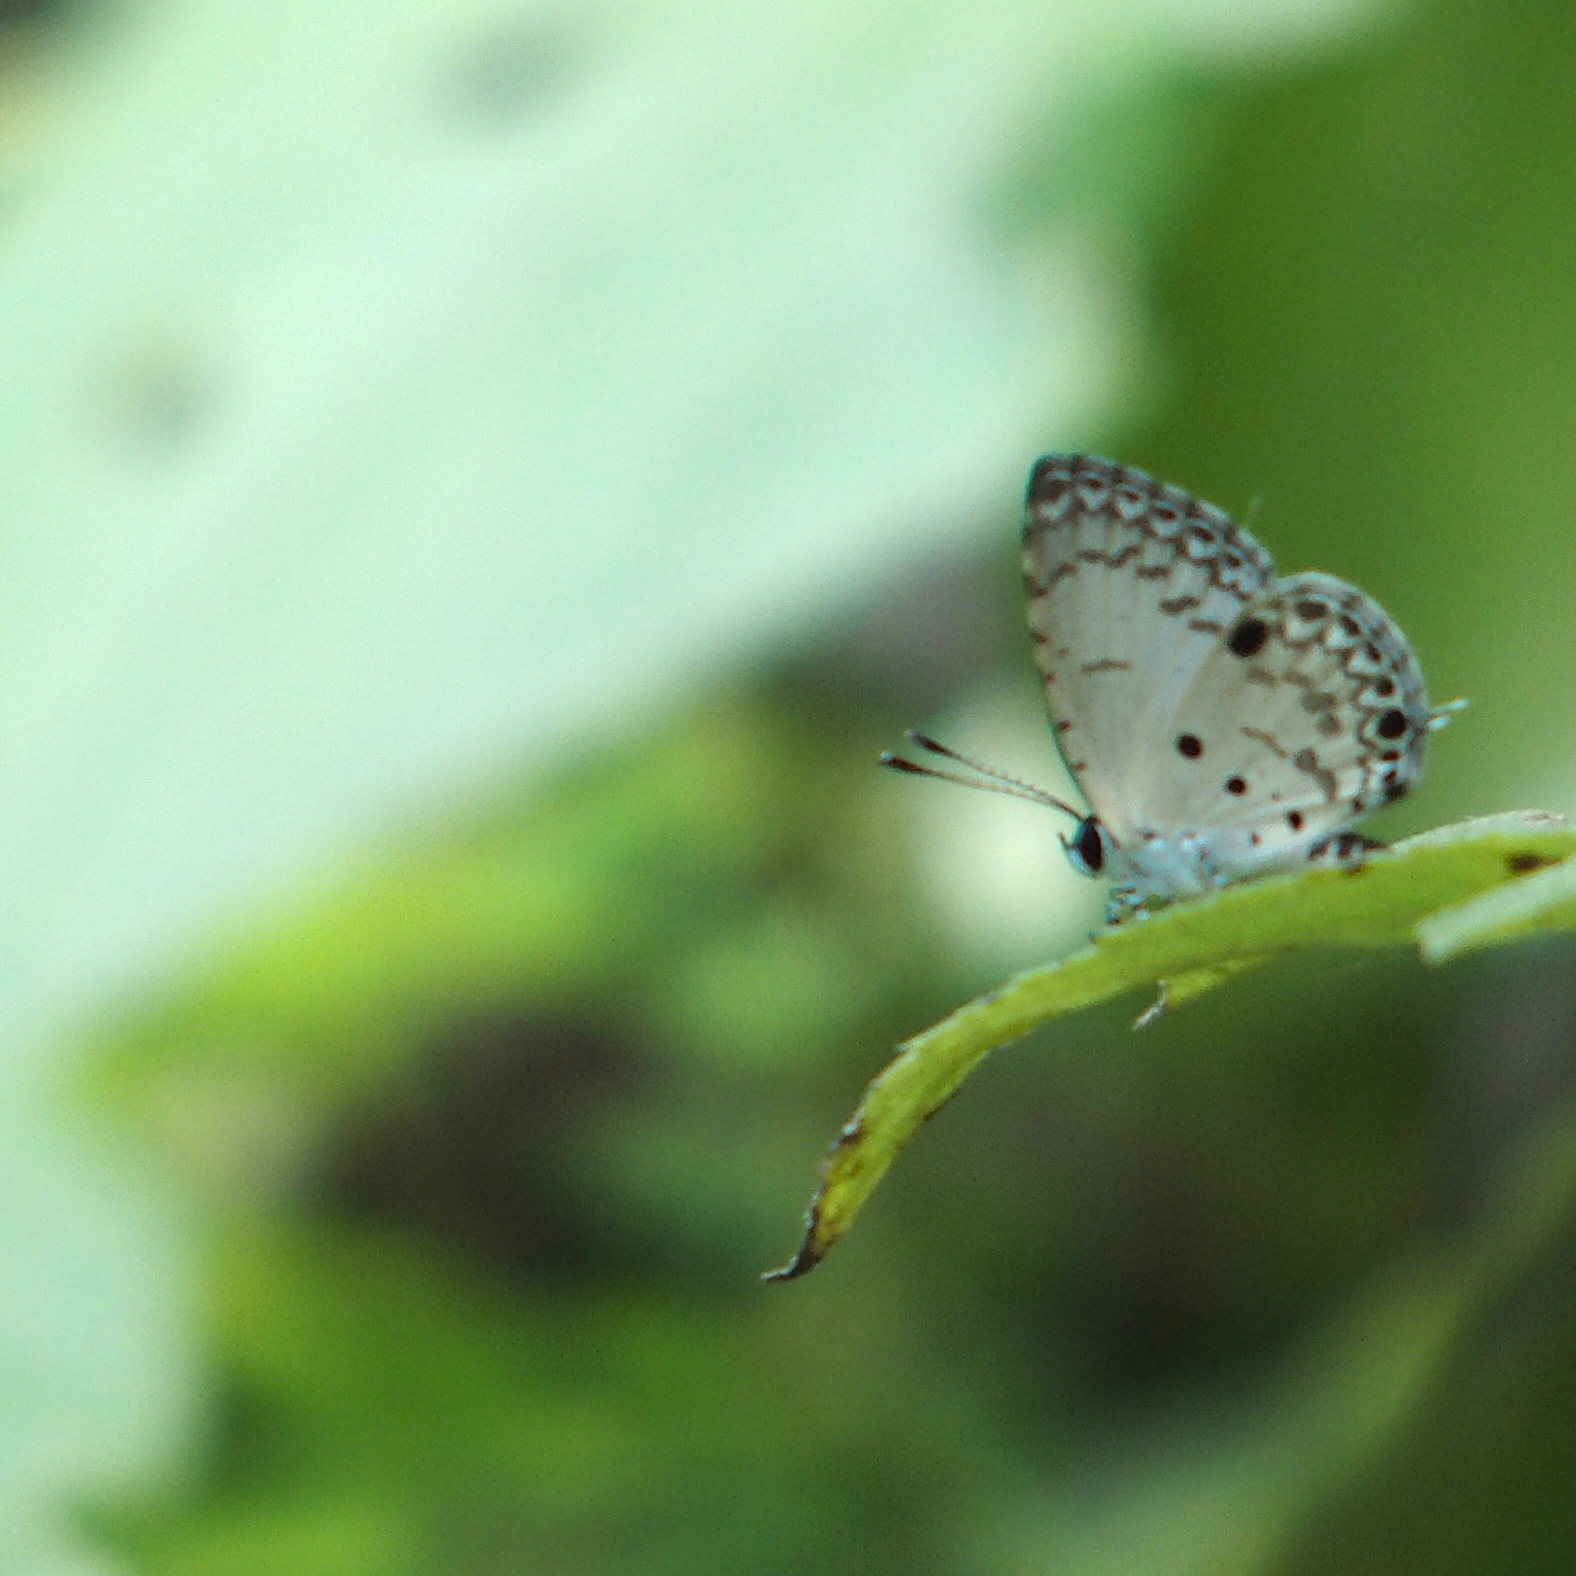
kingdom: Animalia
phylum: Arthropoda
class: Insecta
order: Lepidoptera
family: Lycaenidae
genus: Megisba
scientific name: Megisba malaya
